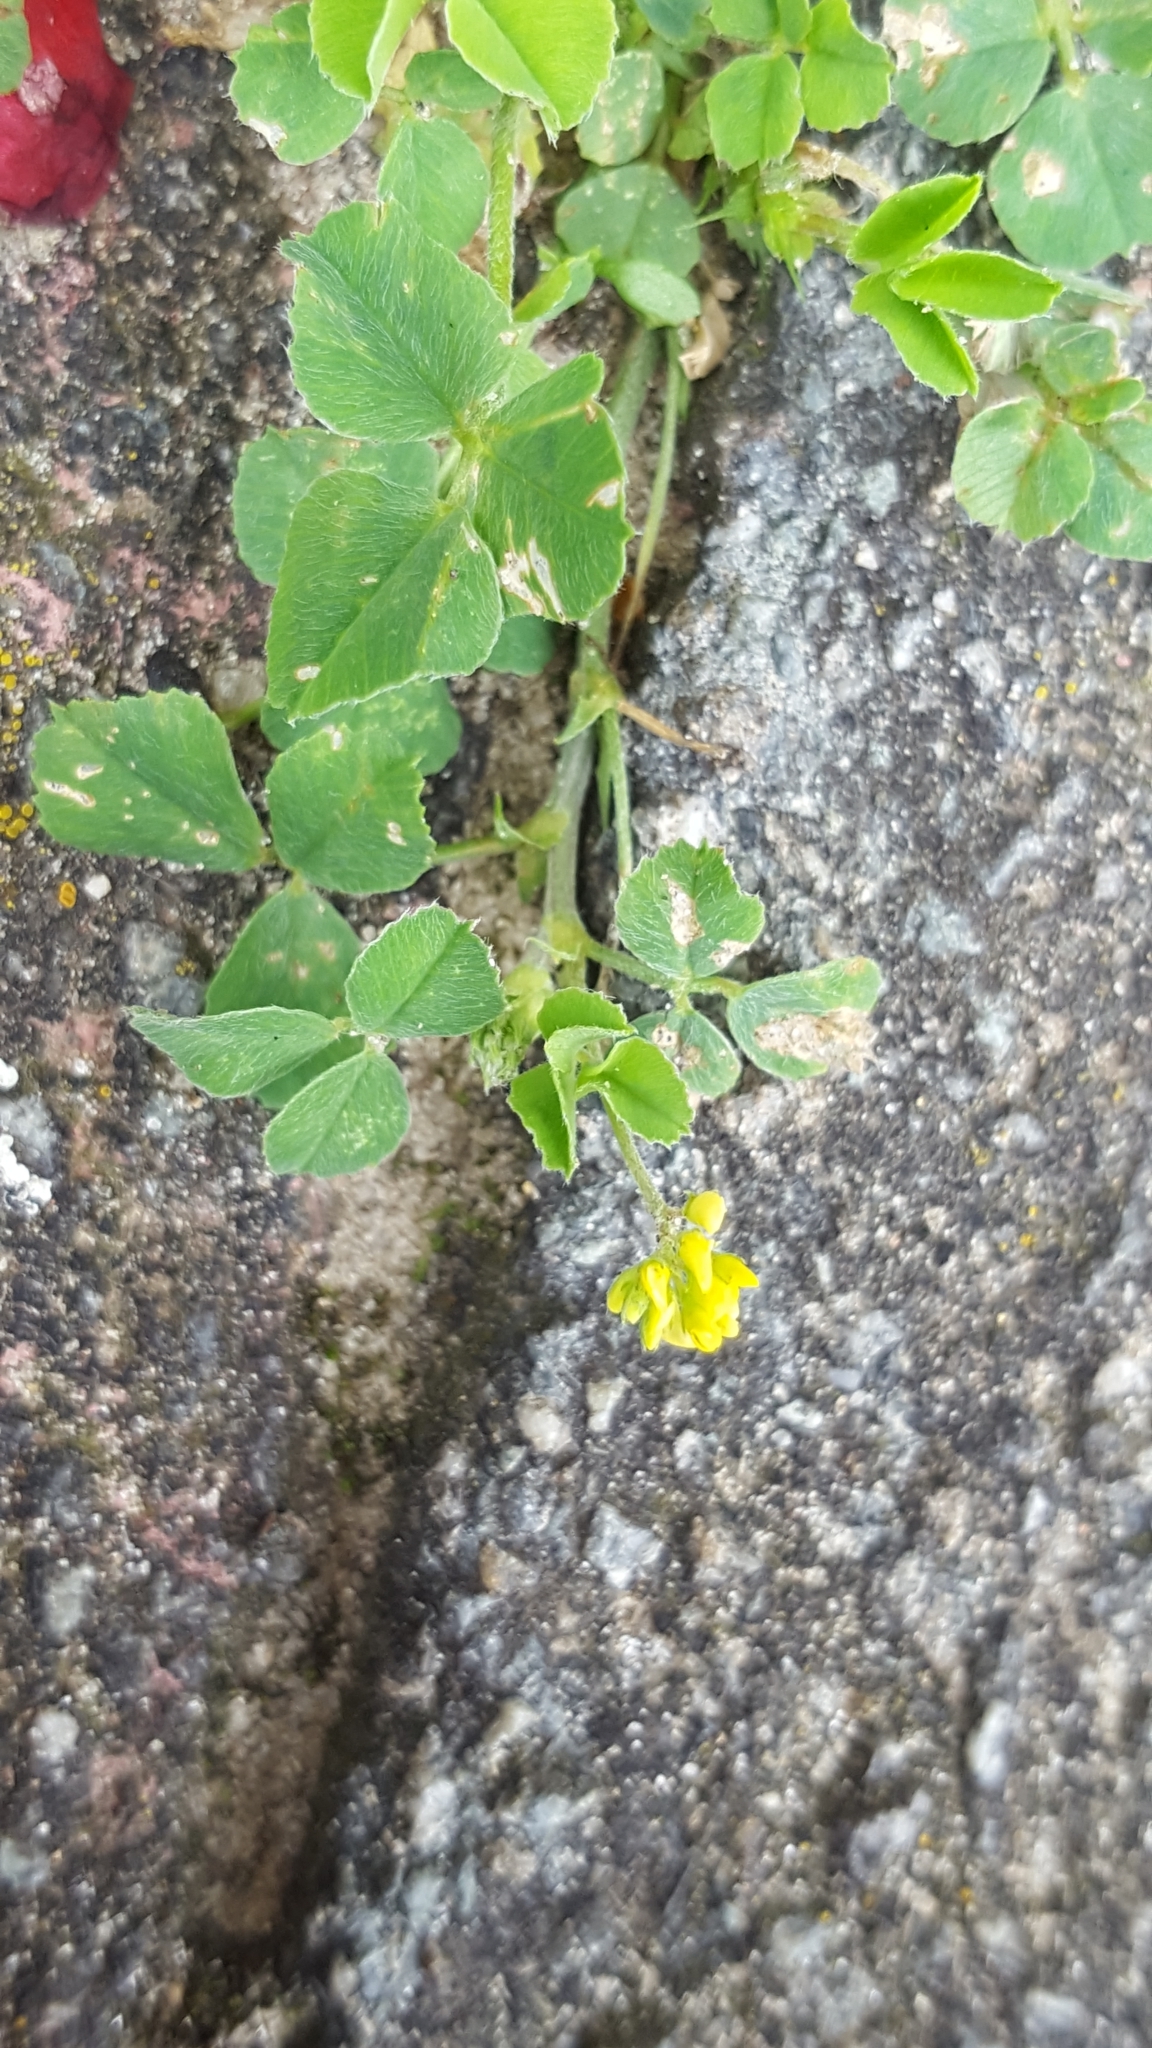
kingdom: Plantae
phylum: Tracheophyta
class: Magnoliopsida
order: Fabales
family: Fabaceae
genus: Medicago
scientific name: Medicago lupulina
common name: Black medick
